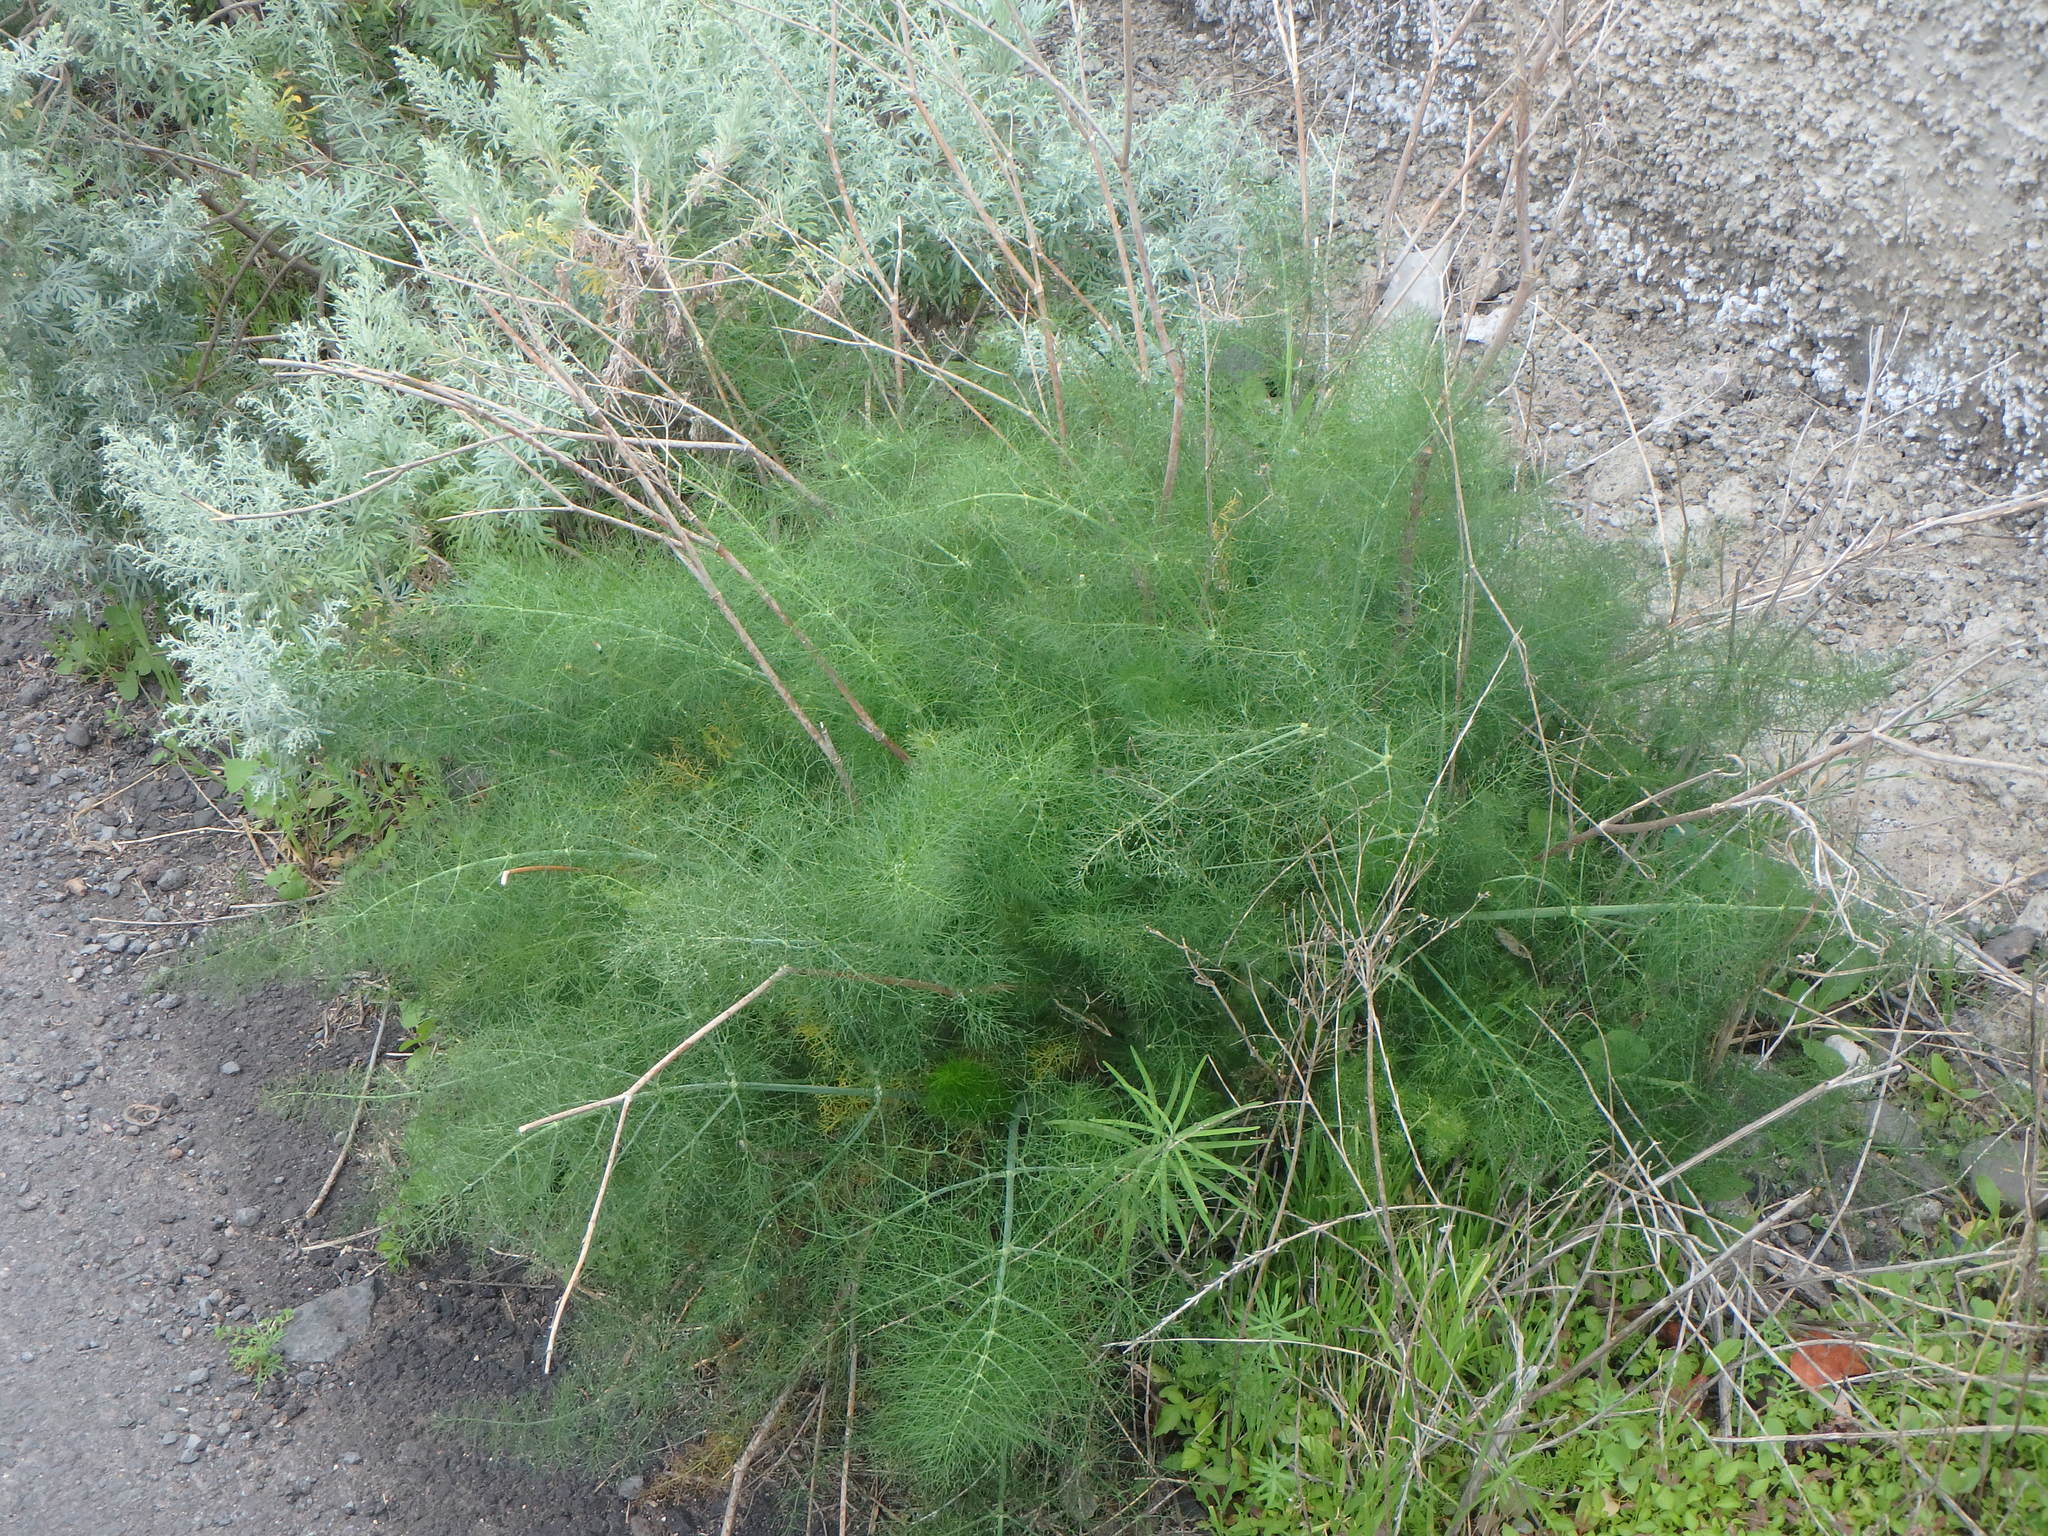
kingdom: Plantae
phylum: Tracheophyta
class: Magnoliopsida
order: Apiales
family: Apiaceae
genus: Foeniculum
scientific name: Foeniculum vulgare
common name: Fennel
